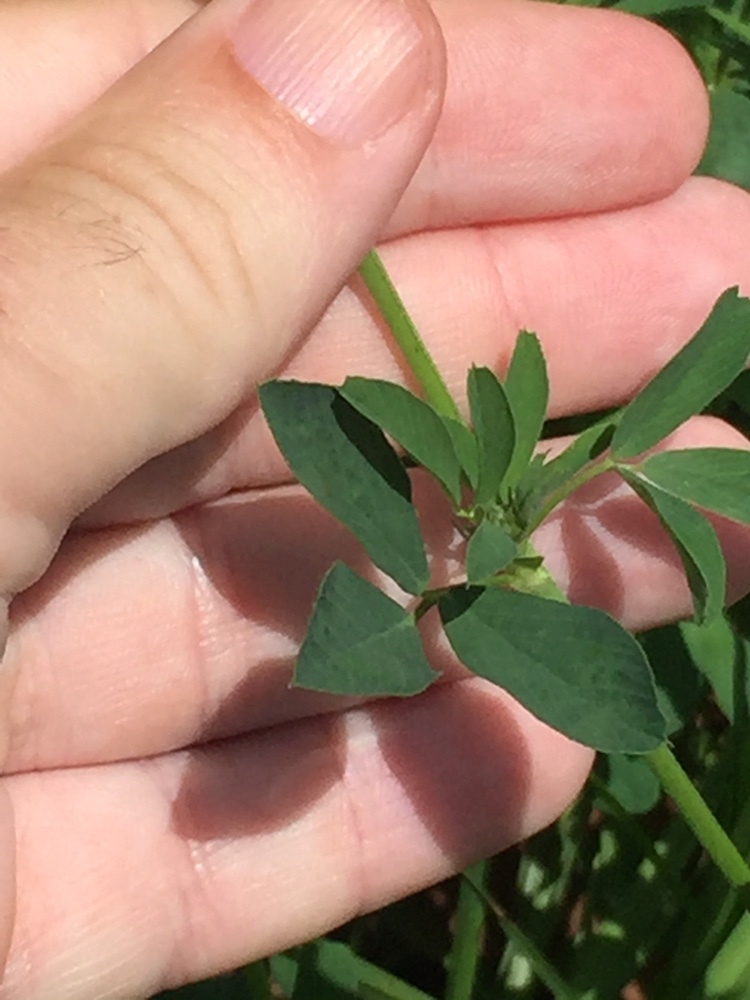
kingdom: Plantae
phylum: Tracheophyta
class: Magnoliopsida
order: Fabales
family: Fabaceae
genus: Medicago
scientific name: Medicago sativa
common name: Alfalfa
